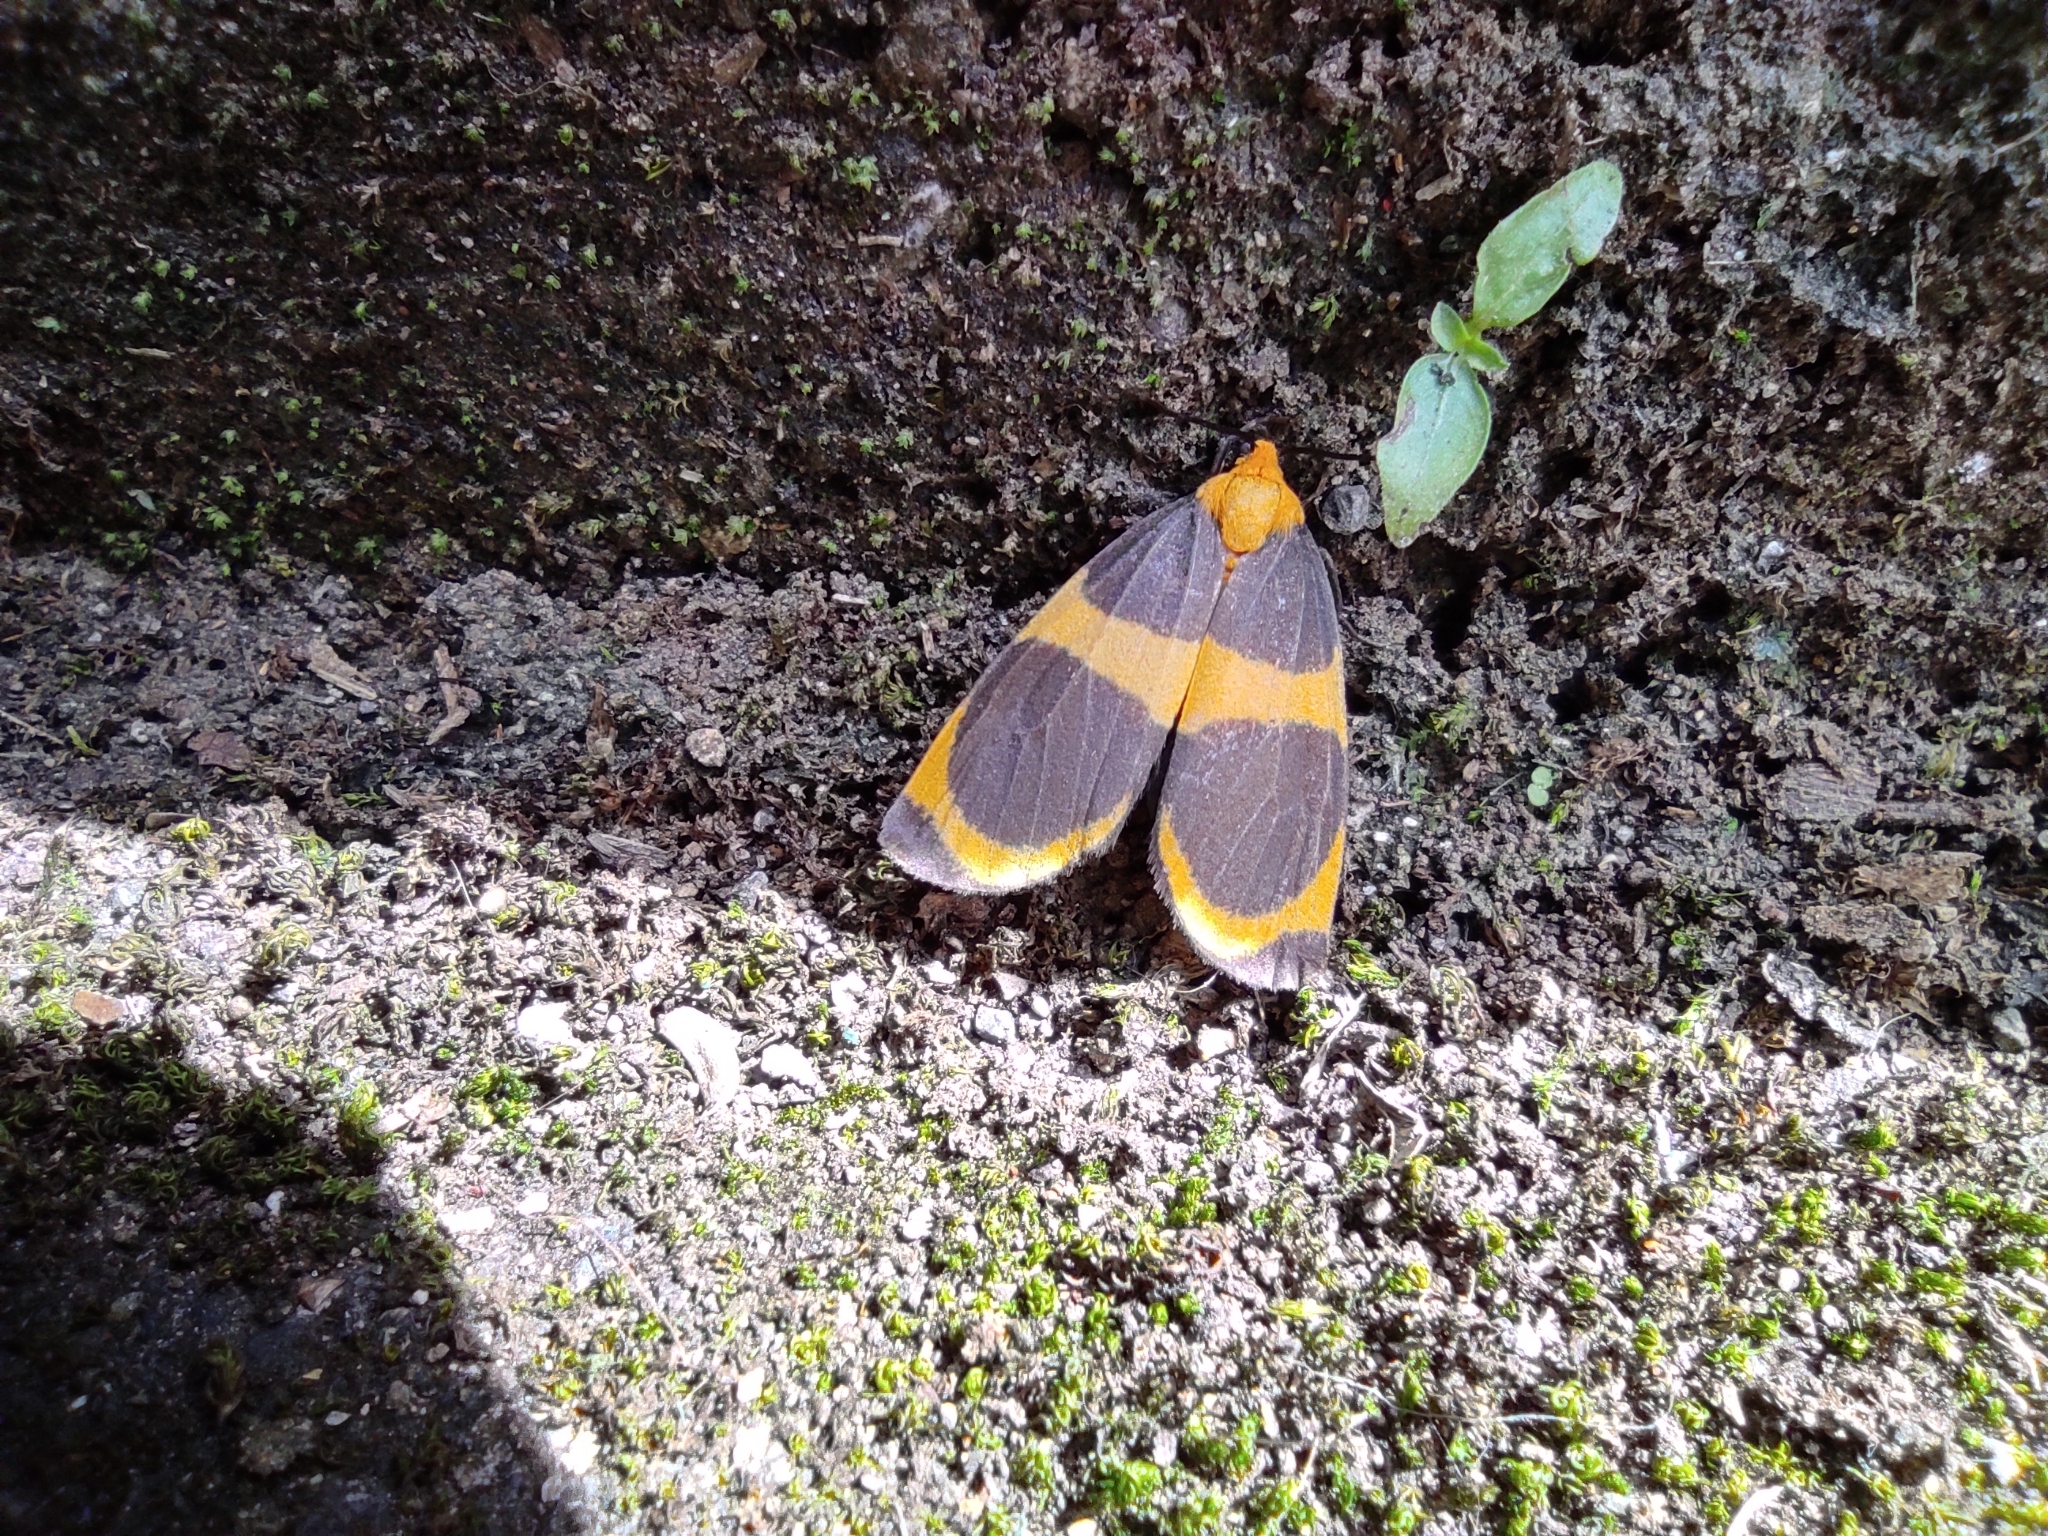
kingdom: Animalia
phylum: Arthropoda
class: Insecta
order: Lepidoptera
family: Erebidae
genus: Eudesmia
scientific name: Eudesmia menea
